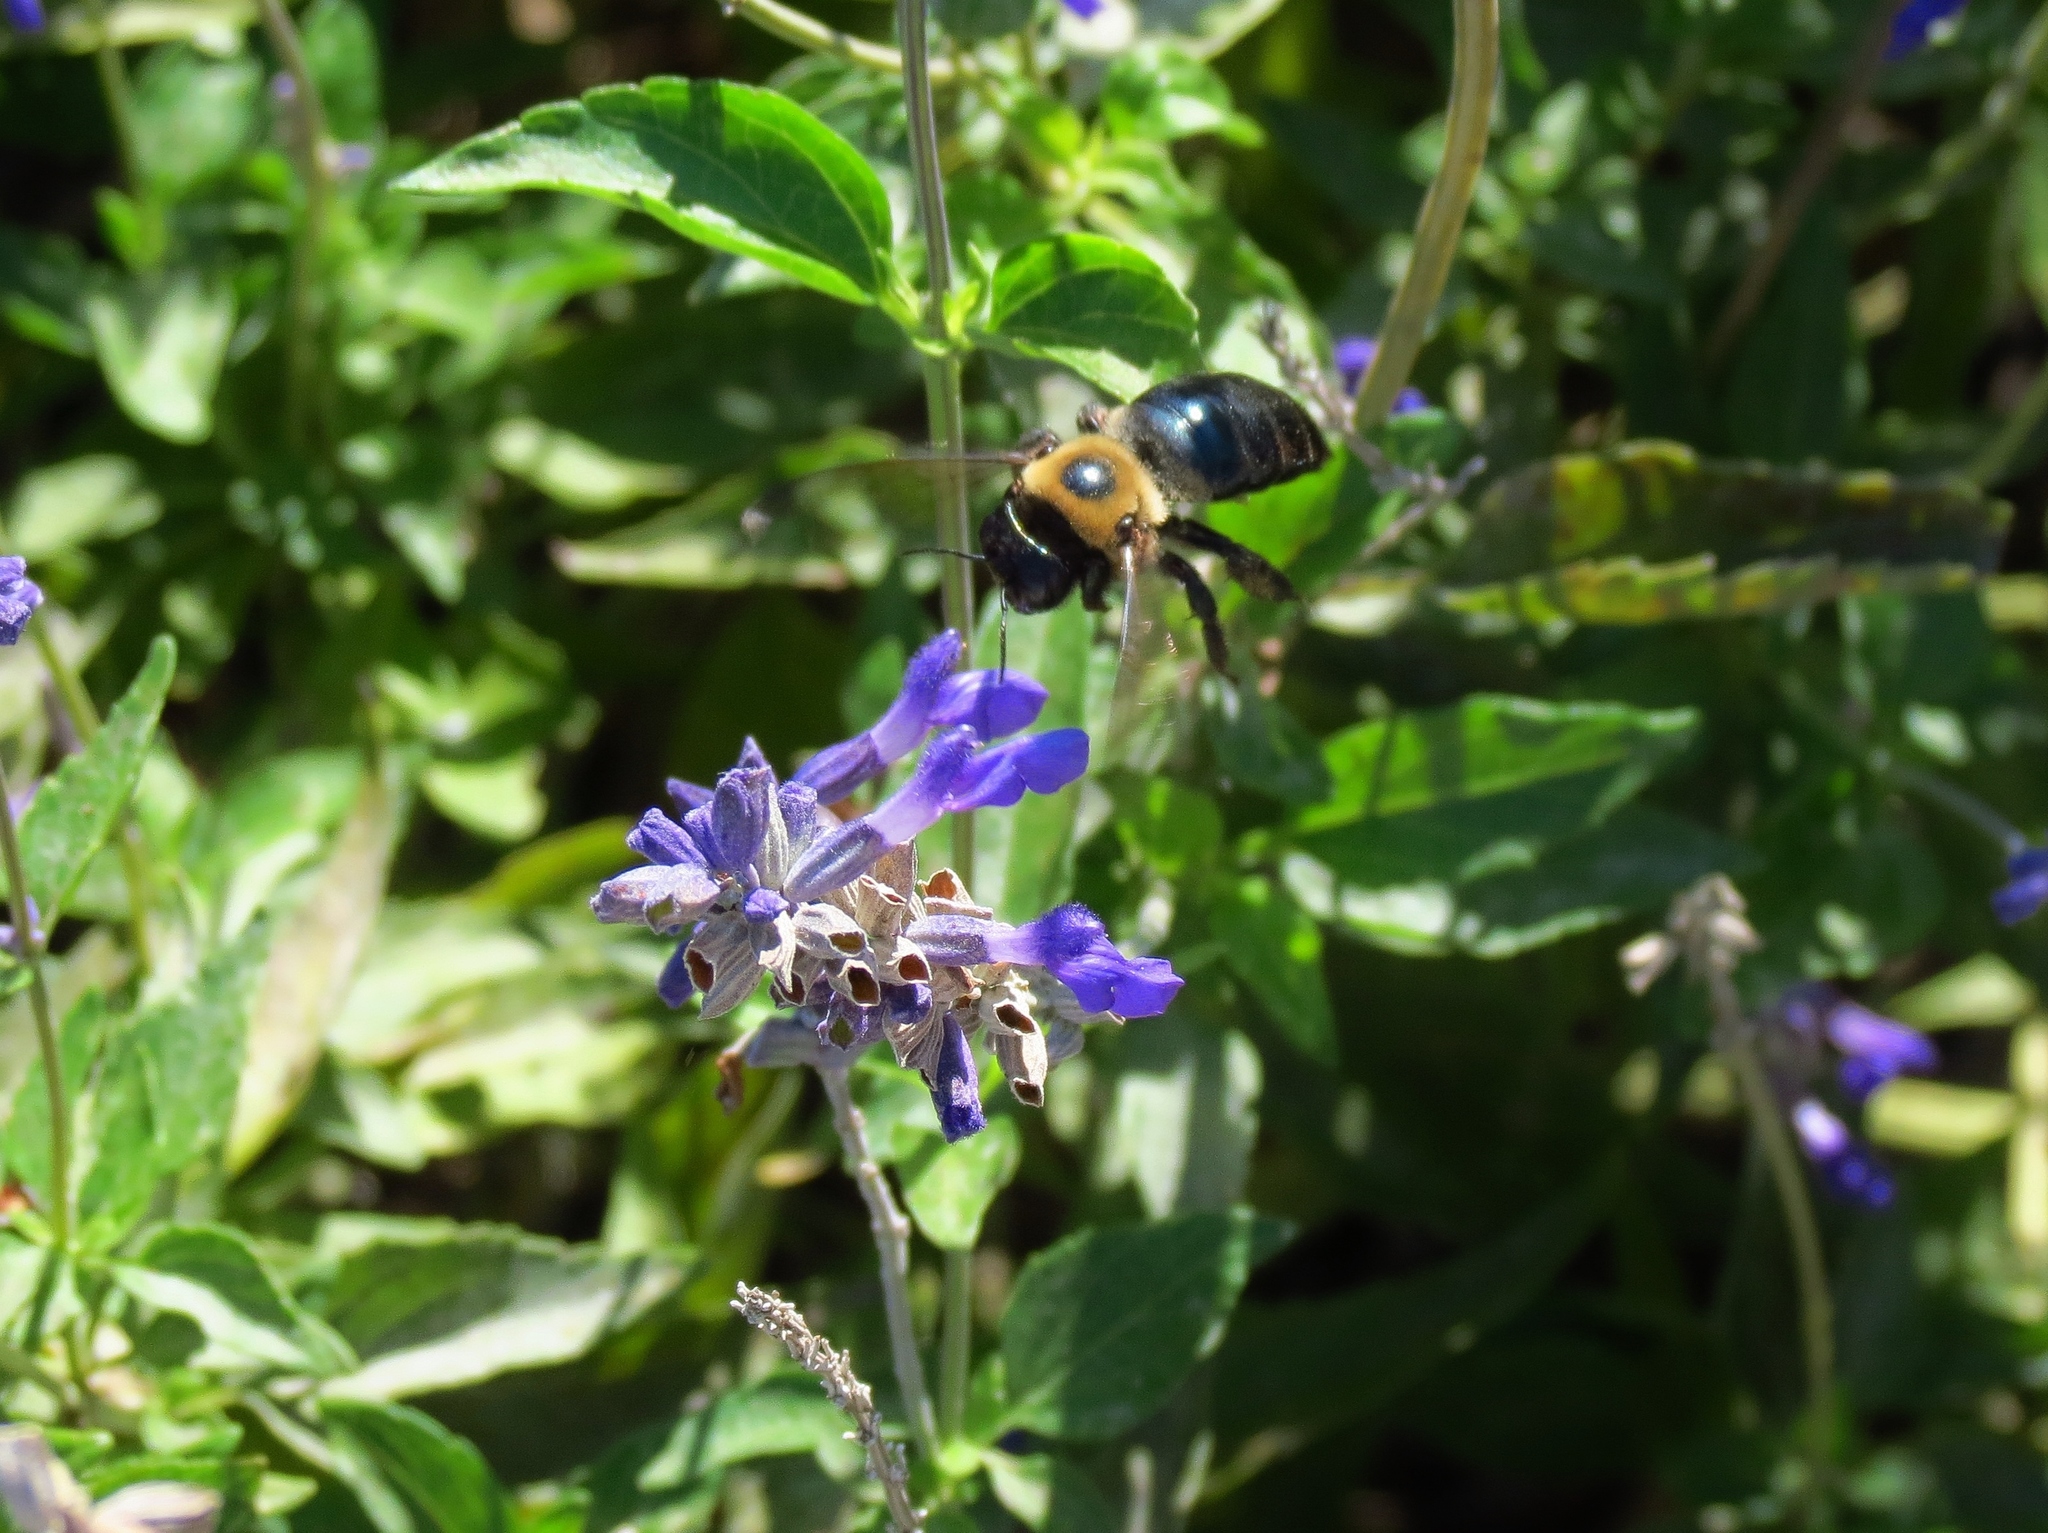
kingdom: Animalia
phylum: Arthropoda
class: Insecta
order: Hymenoptera
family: Apidae
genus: Xylocopa
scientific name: Xylocopa virginica
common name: Carpenter bee
